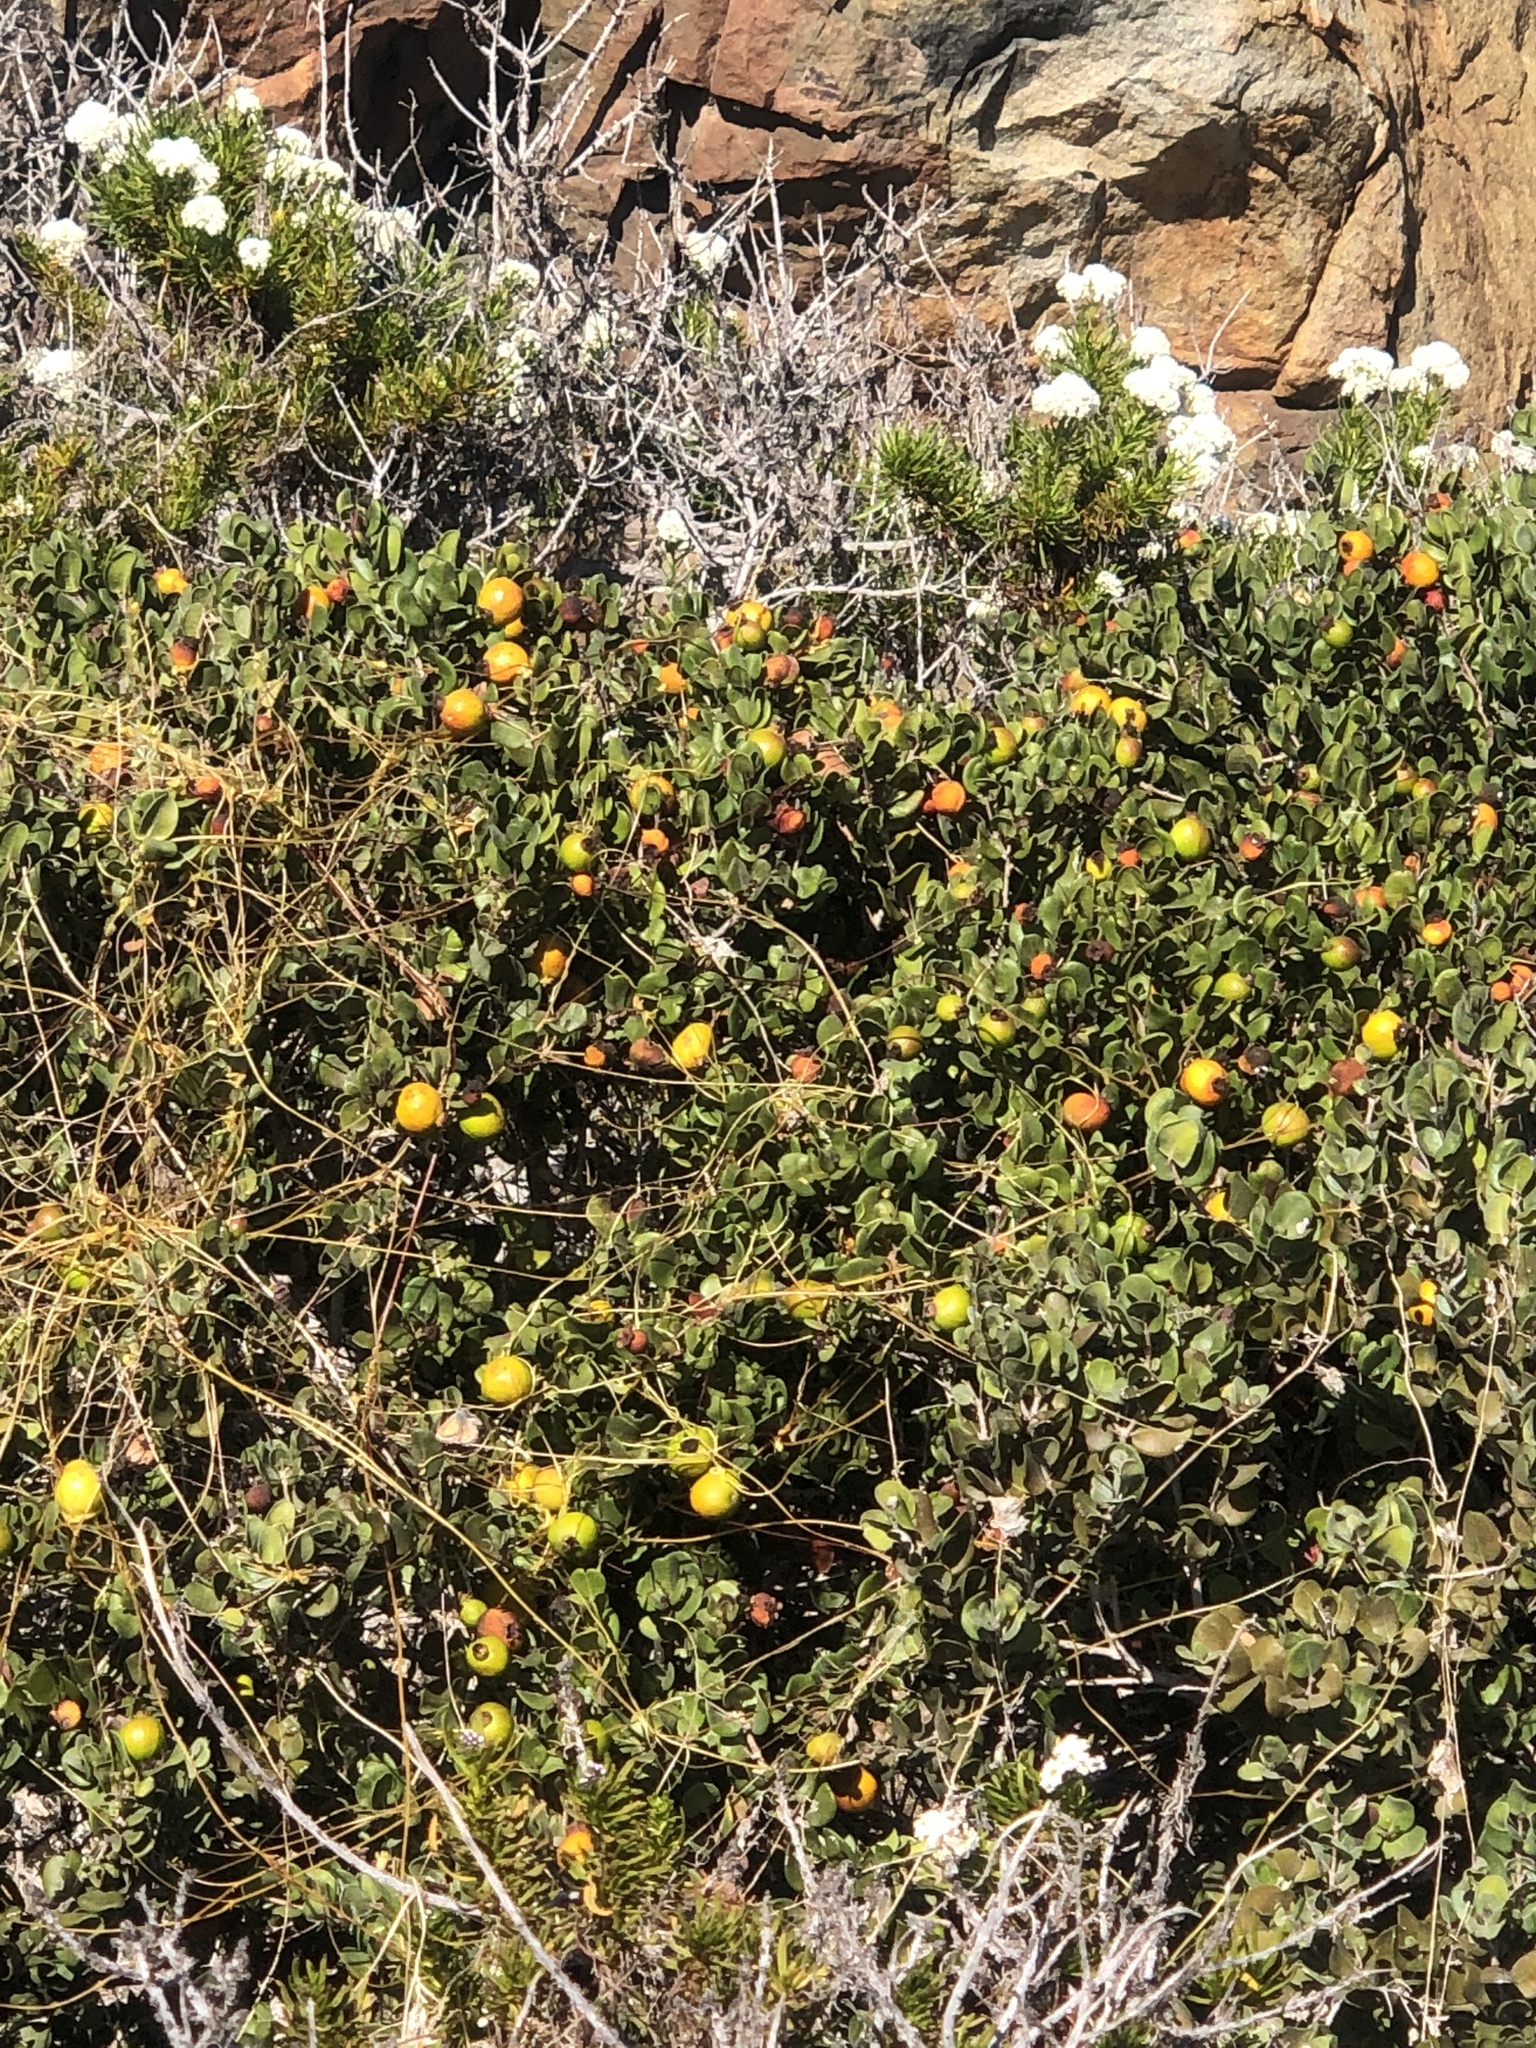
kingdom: Plantae
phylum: Tracheophyta
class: Magnoliopsida
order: Myrtales
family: Myrtaceae
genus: Myrcianthes
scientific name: Myrcianthes coquimbensis
